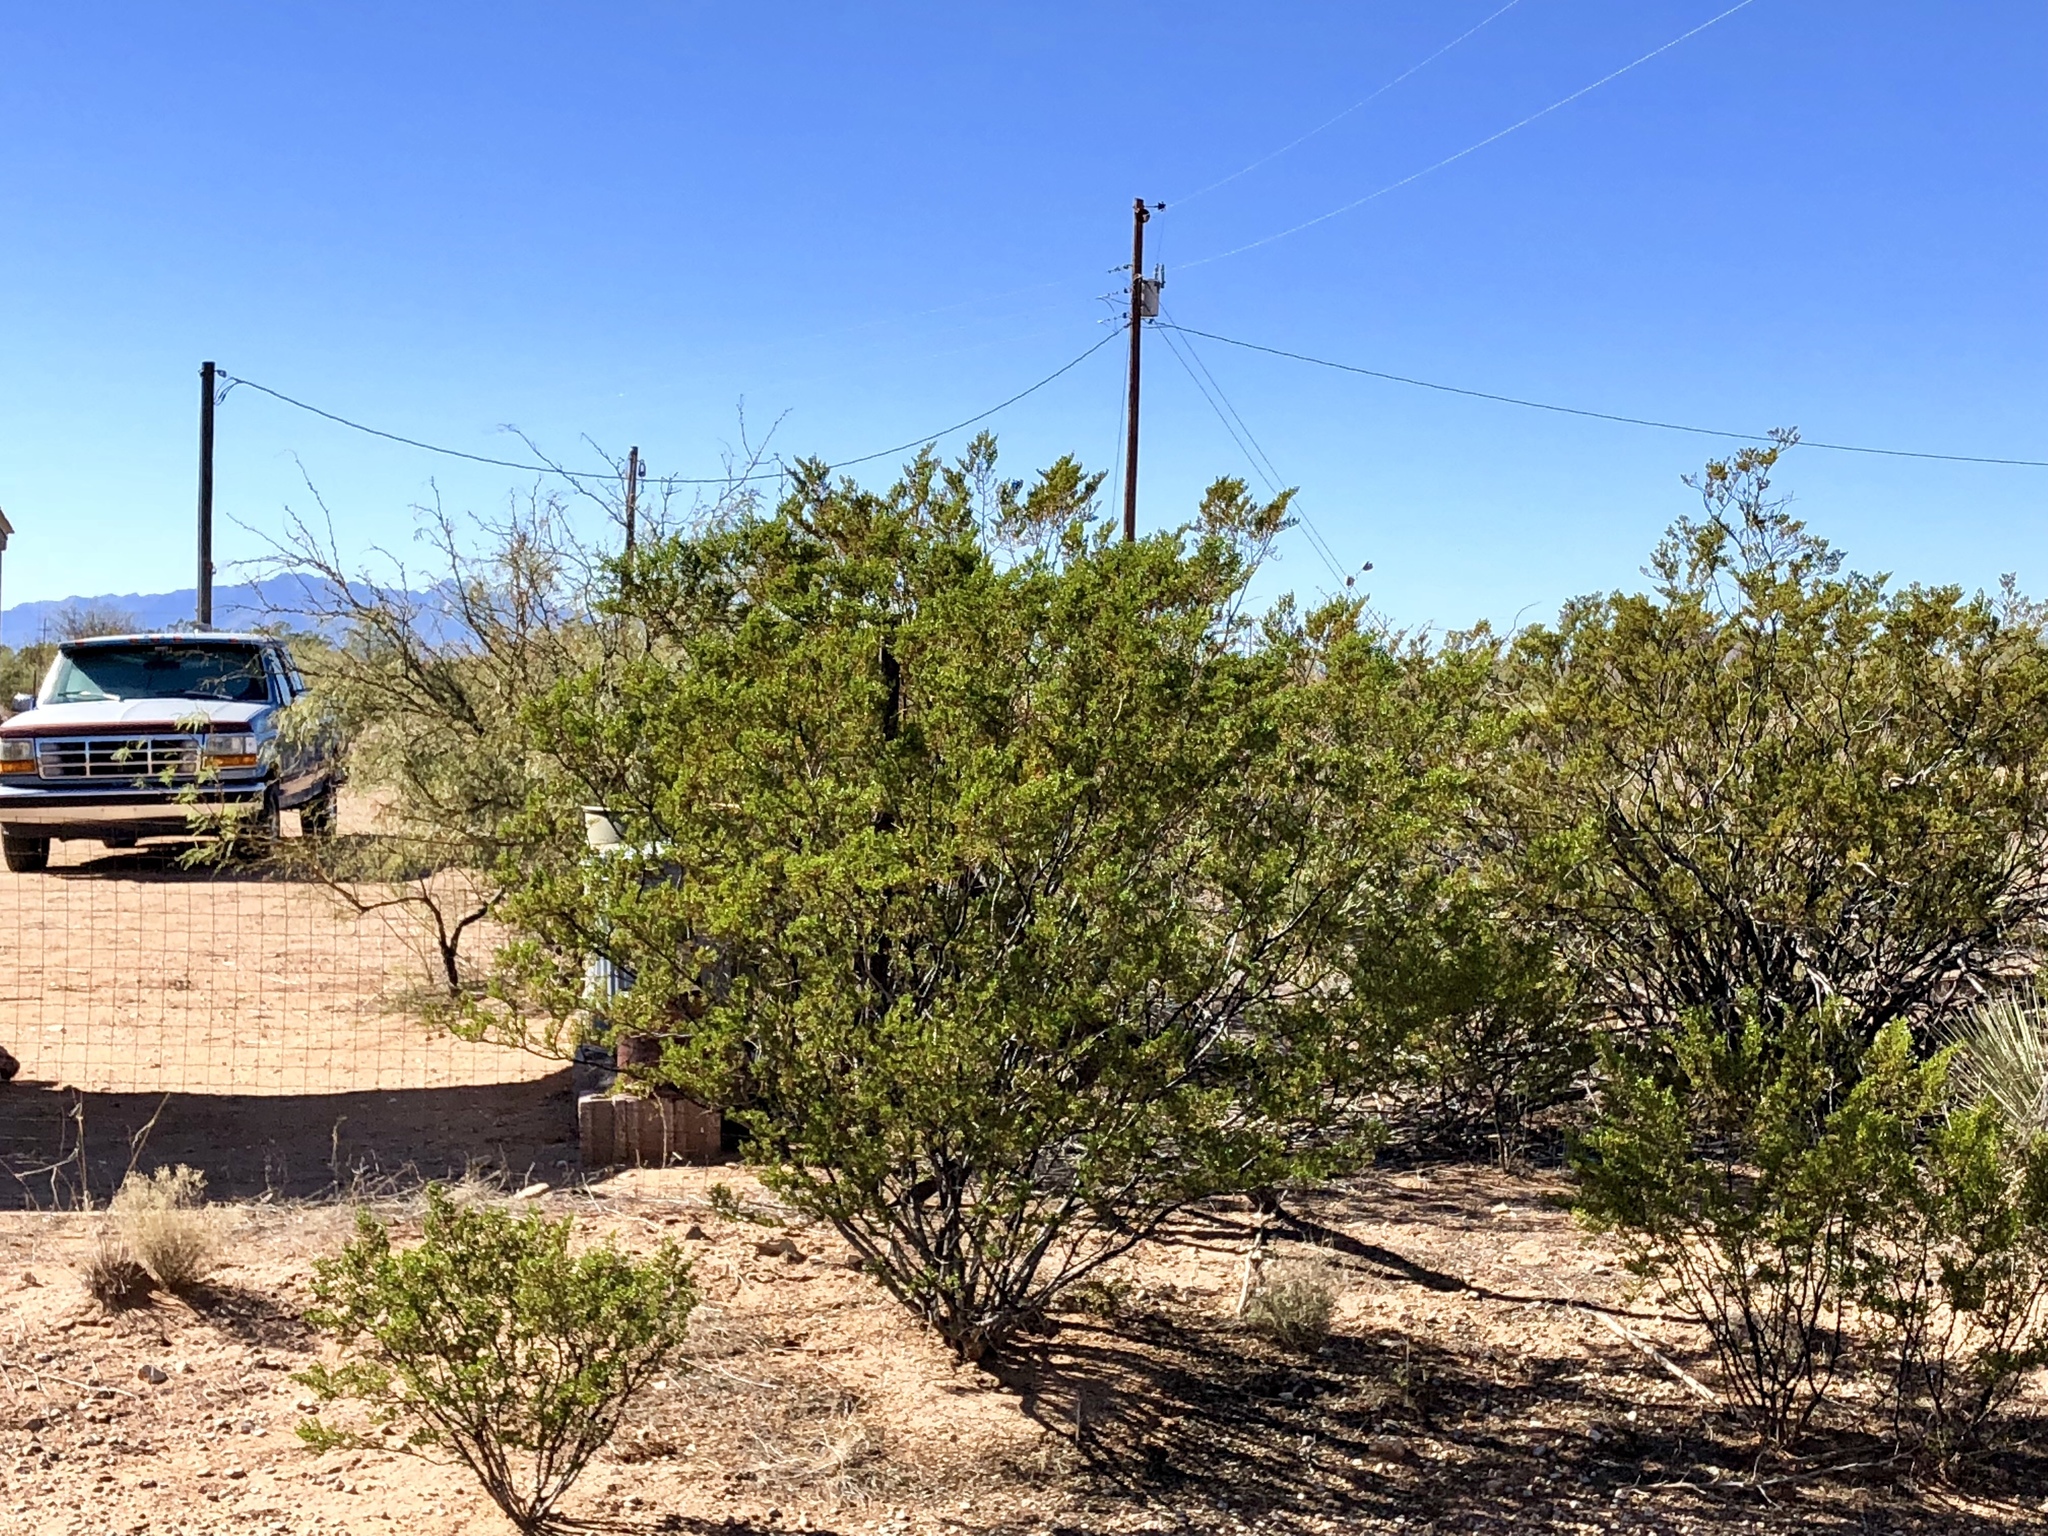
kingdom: Plantae
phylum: Tracheophyta
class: Magnoliopsida
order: Zygophyllales
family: Zygophyllaceae
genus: Larrea
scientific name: Larrea tridentata
